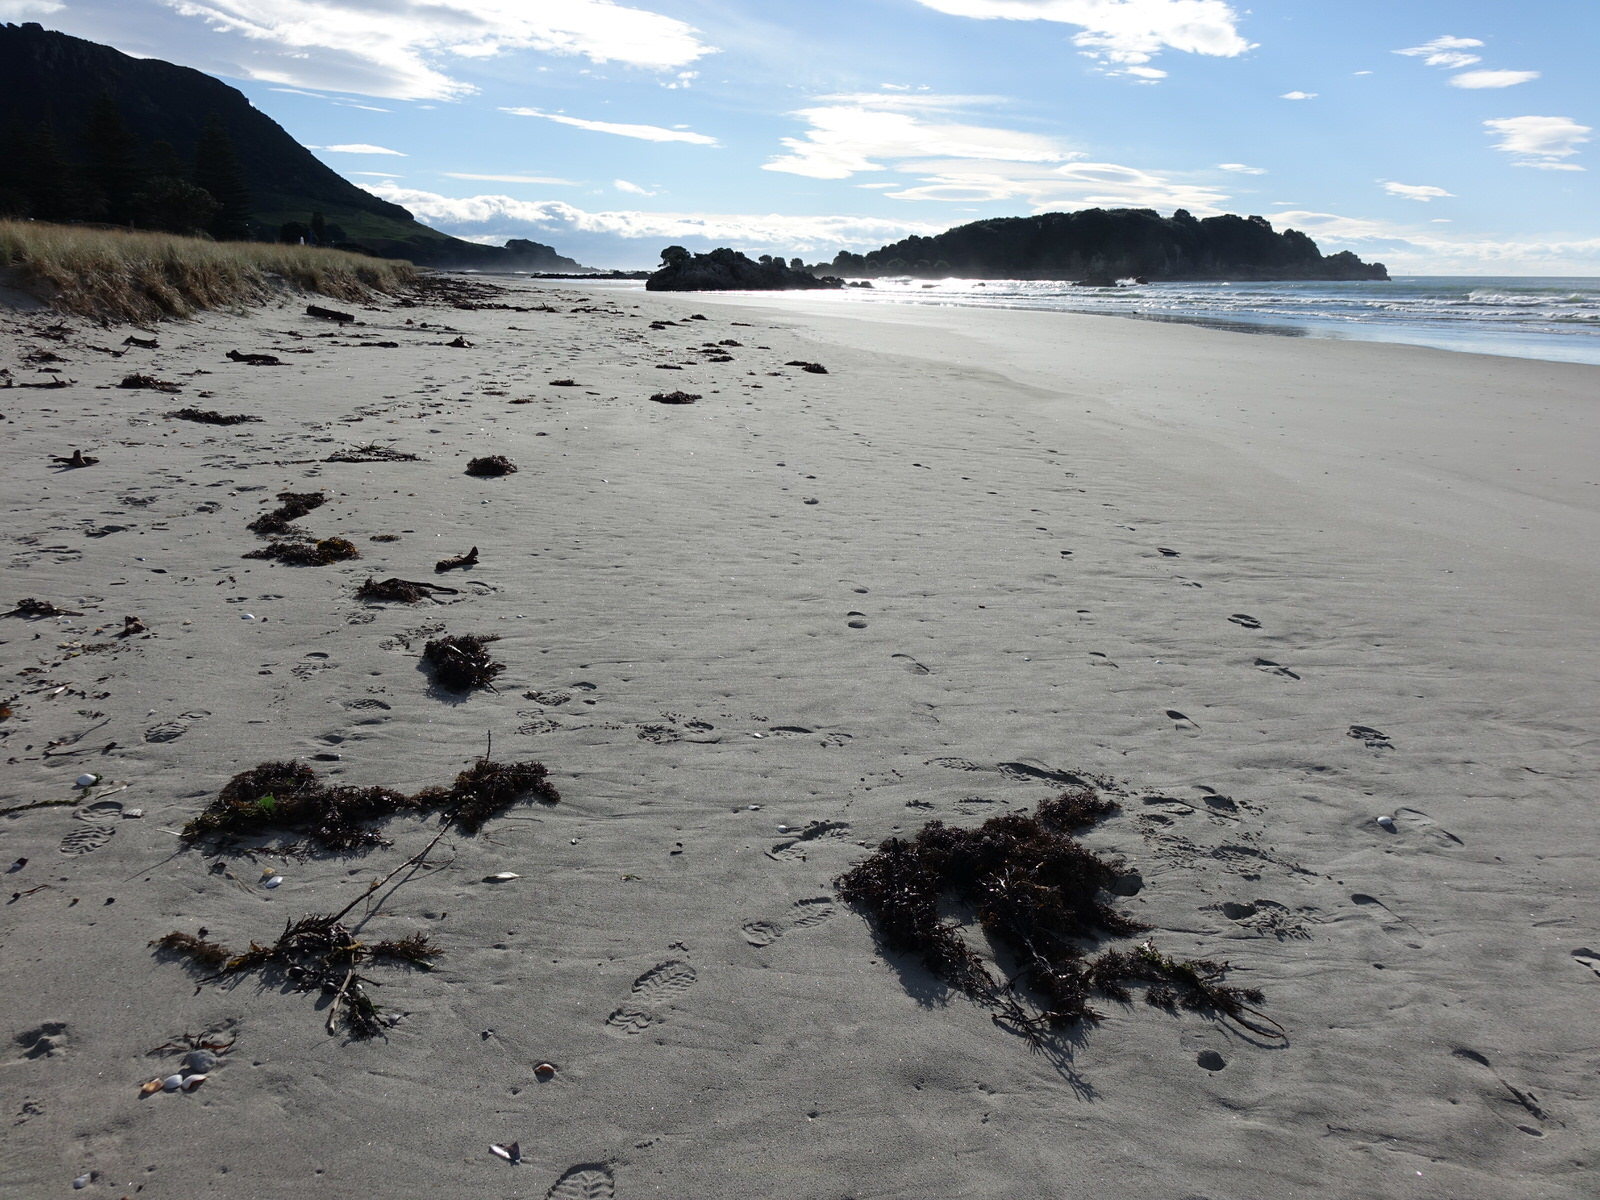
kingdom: Chromista
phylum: Ochrophyta
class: Phaeophyceae
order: Fucales
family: Sargassaceae
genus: Cystophora
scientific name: Cystophora retroflexa
